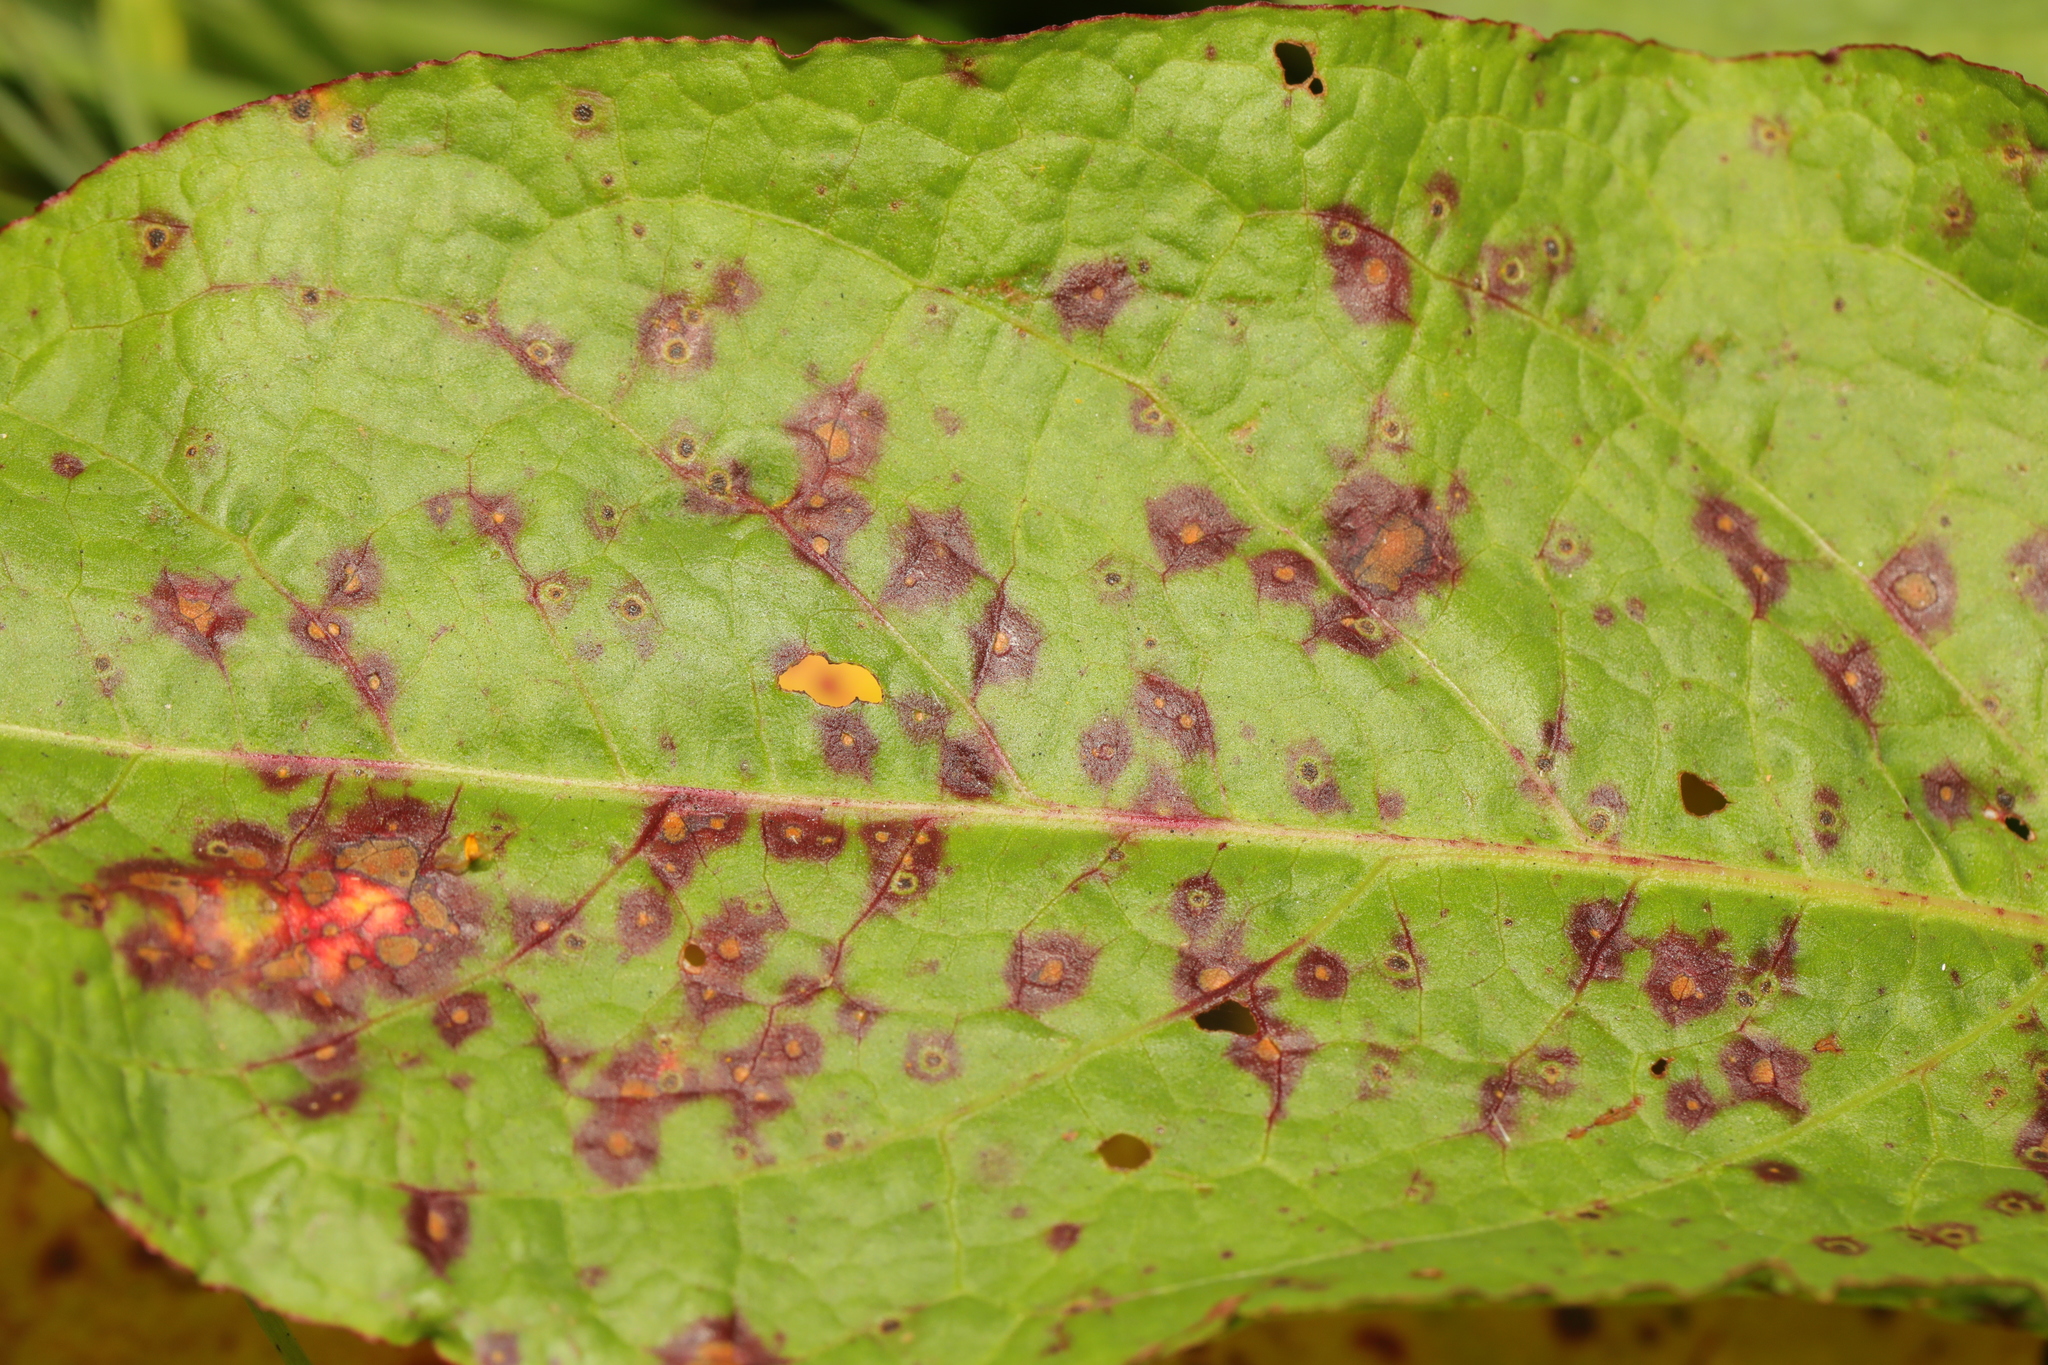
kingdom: Fungi
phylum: Ascomycota
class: Dothideomycetes
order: Mycosphaerellales
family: Mycosphaerellaceae
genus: Ramularia
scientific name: Ramularia rubella
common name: Red dock spot
